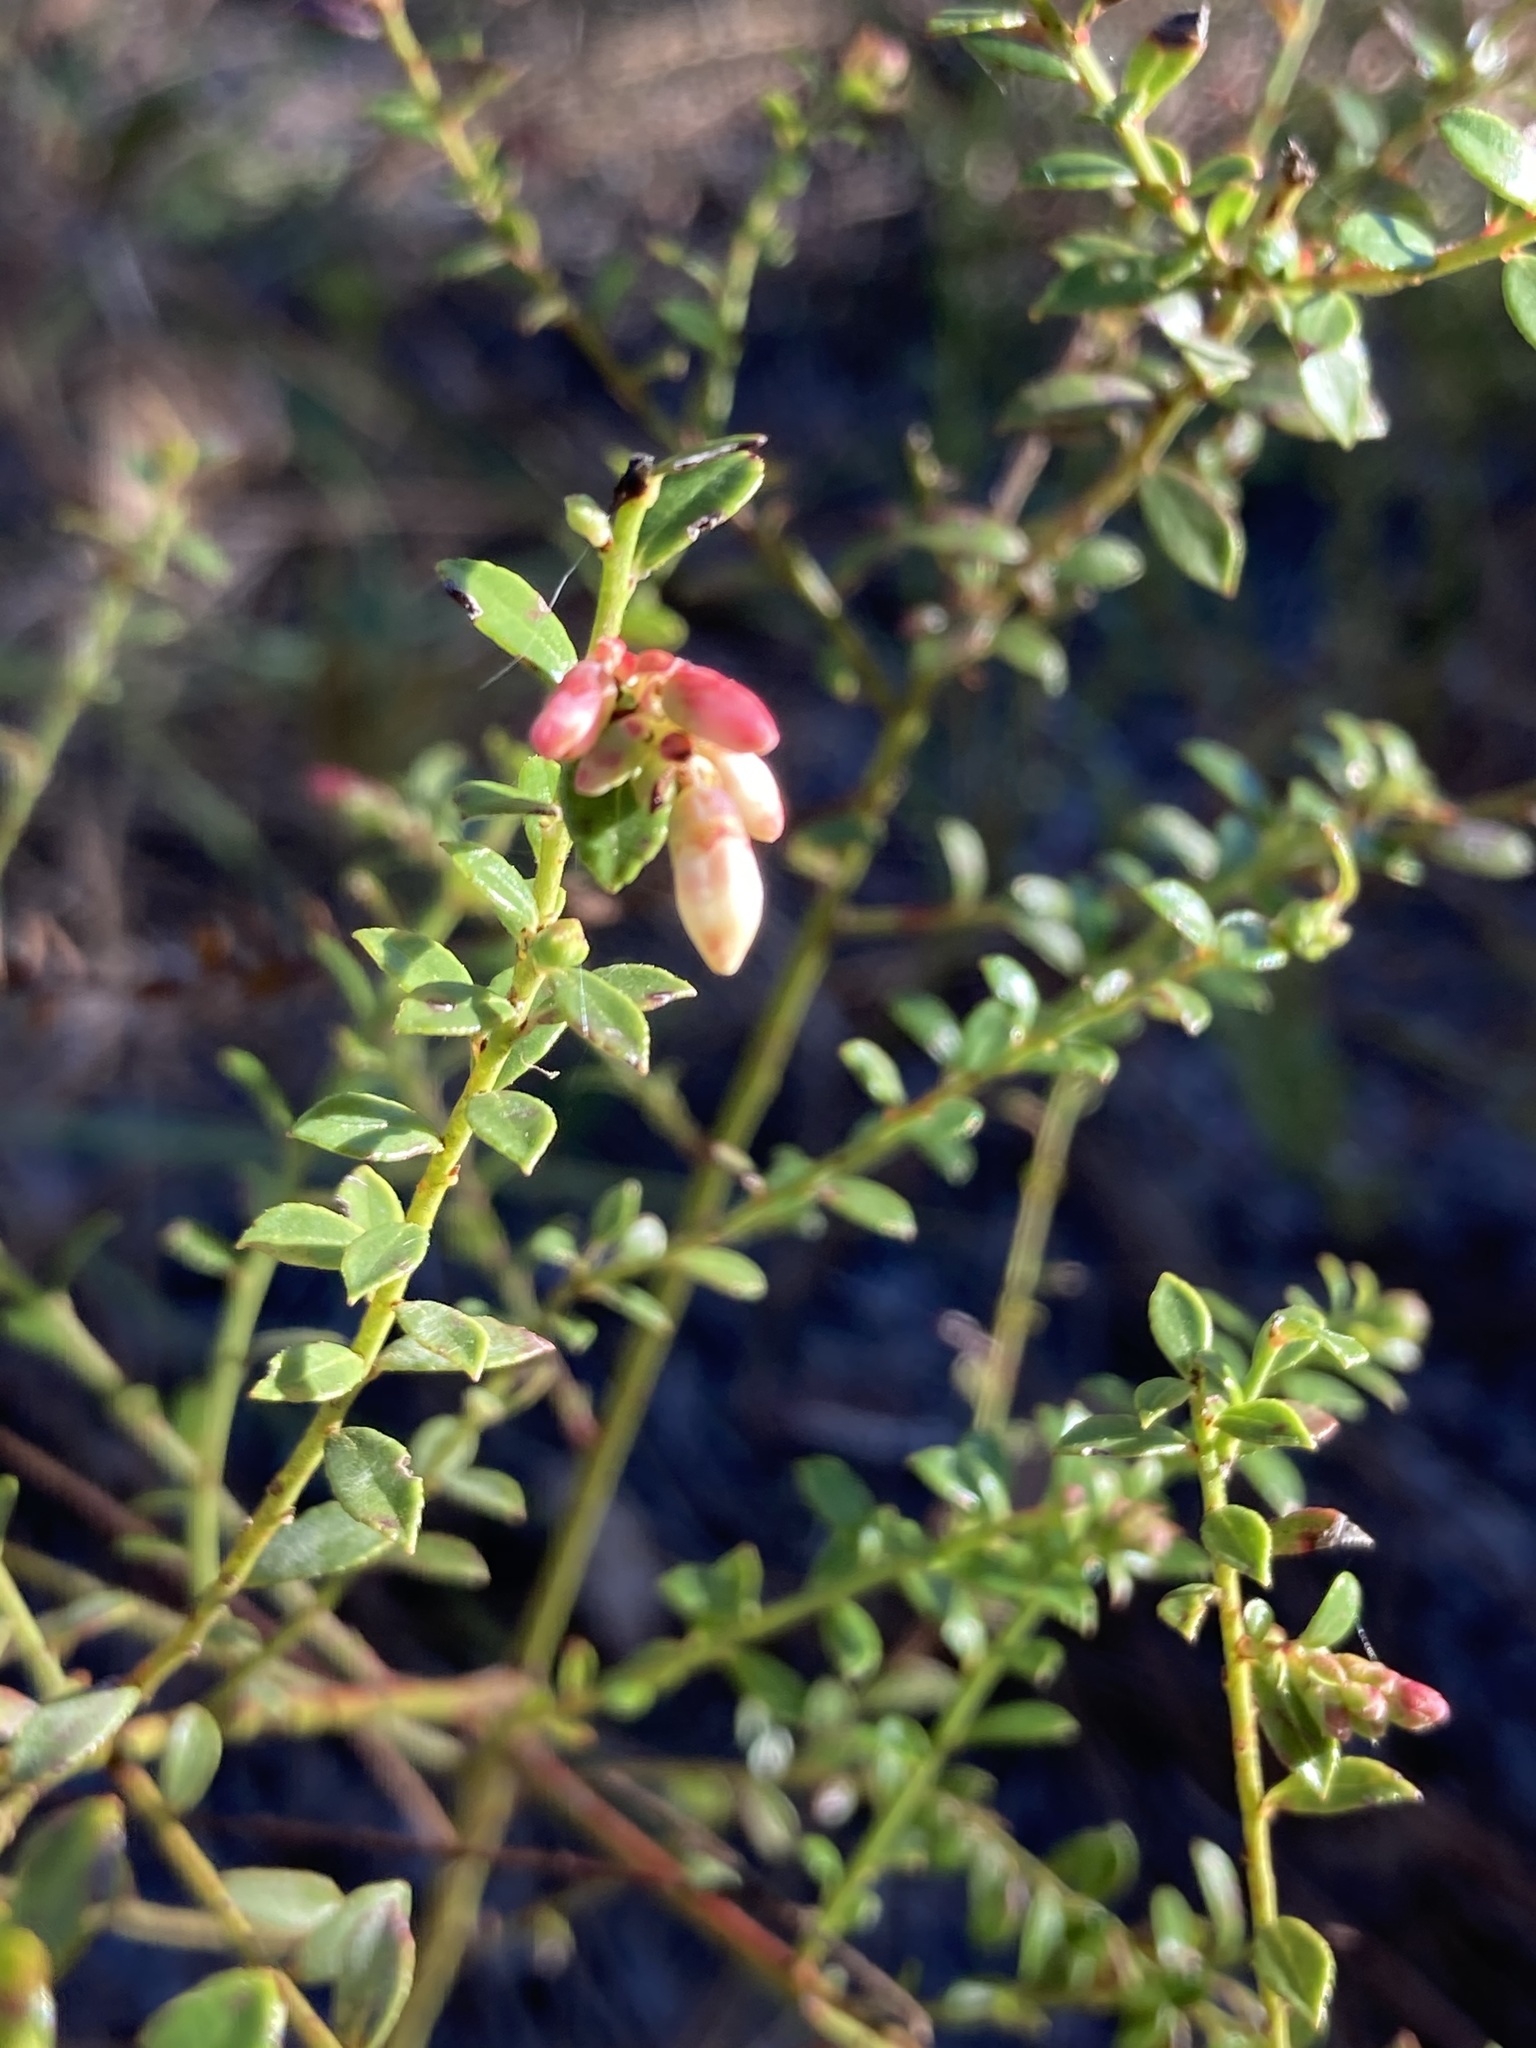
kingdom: Plantae
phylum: Tracheophyta
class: Magnoliopsida
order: Ericales
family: Ericaceae
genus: Vaccinium
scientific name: Vaccinium myrsinites
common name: Evergreen blueberry
